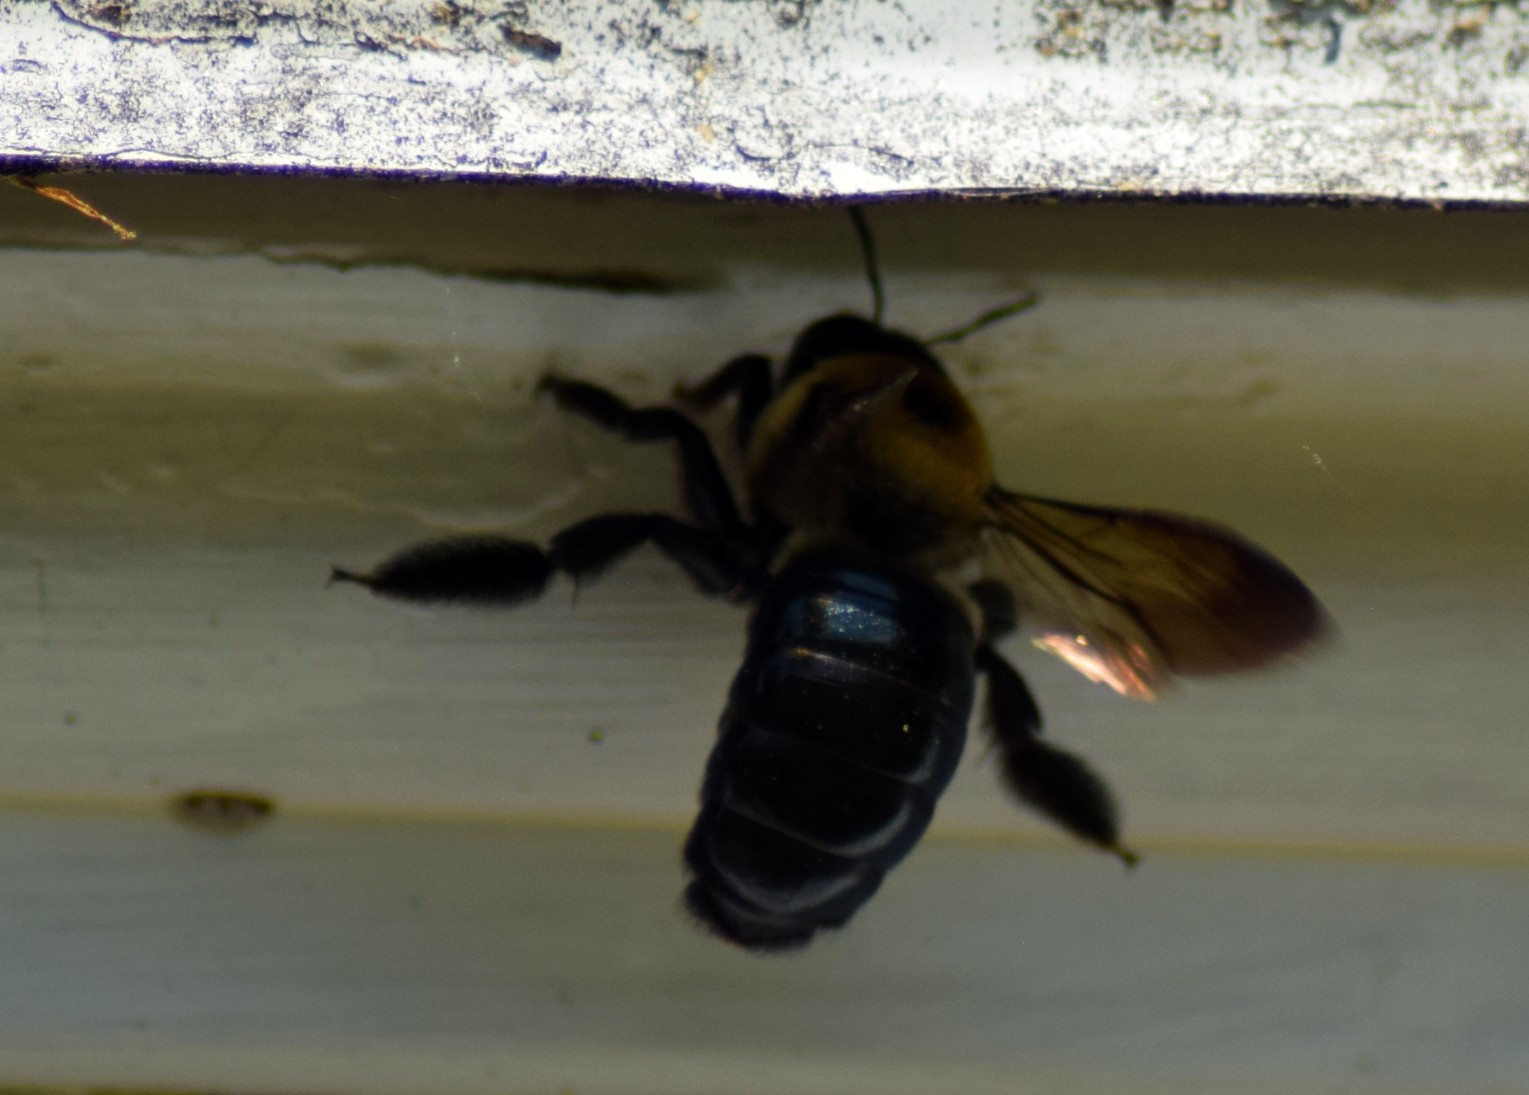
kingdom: Animalia
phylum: Arthropoda
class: Insecta
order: Hymenoptera
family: Apidae
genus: Xylocopa
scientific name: Xylocopa virginica
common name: Carpenter bee
